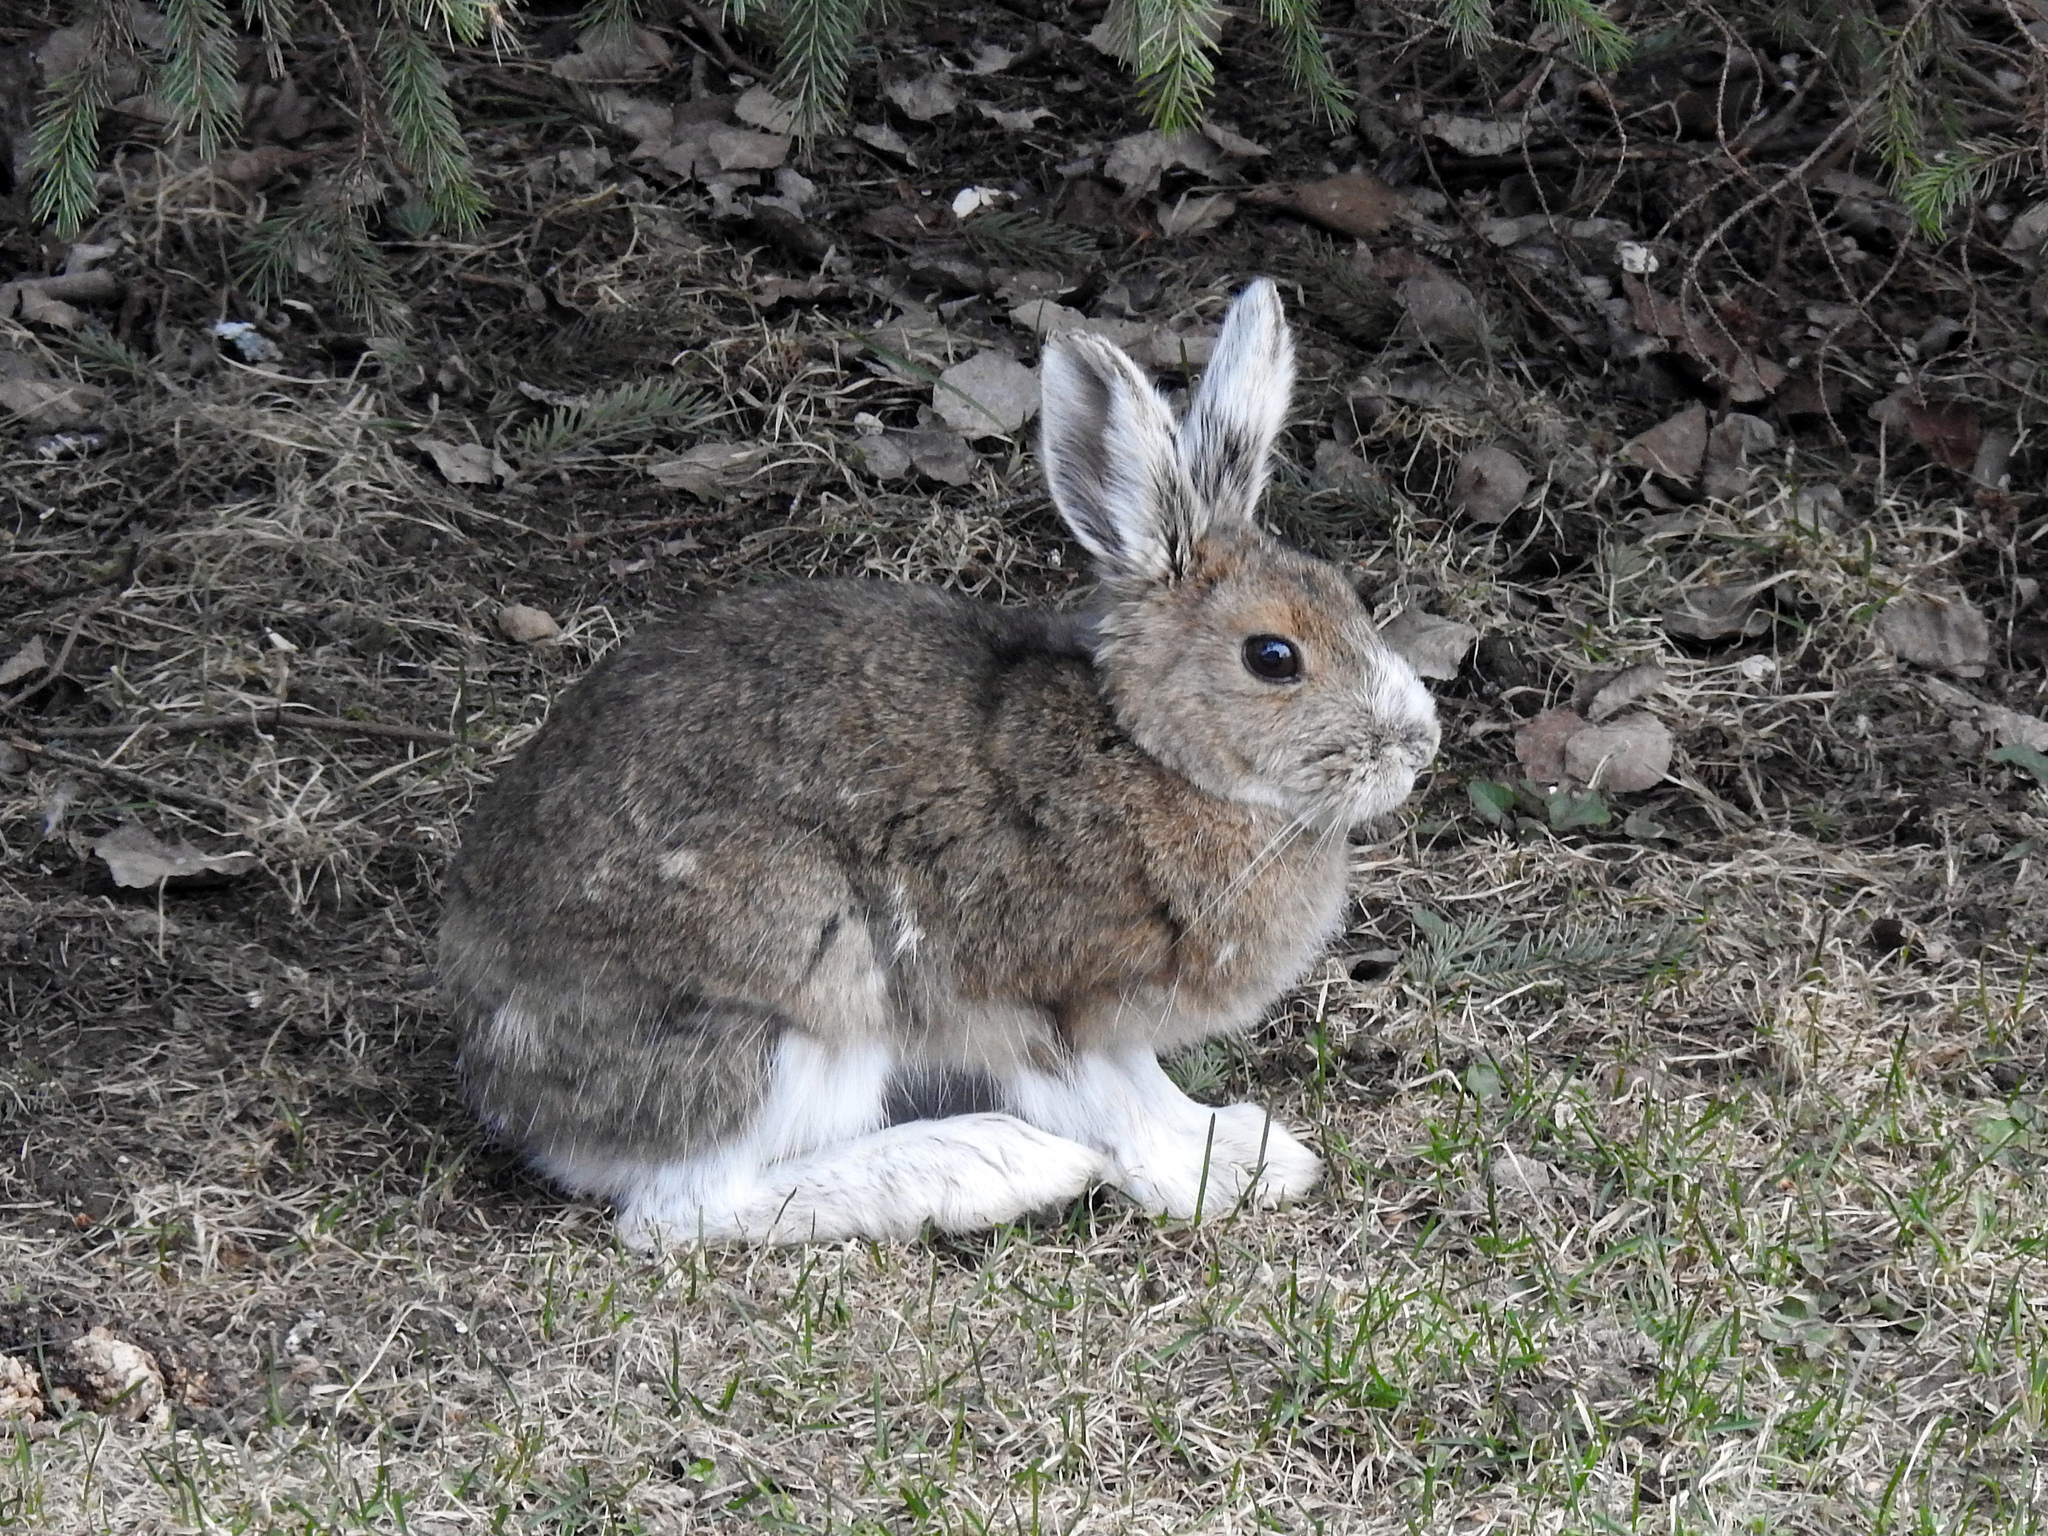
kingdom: Animalia
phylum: Chordata
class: Mammalia
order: Lagomorpha
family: Leporidae
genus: Lepus
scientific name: Lepus americanus
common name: Snowshoe hare
